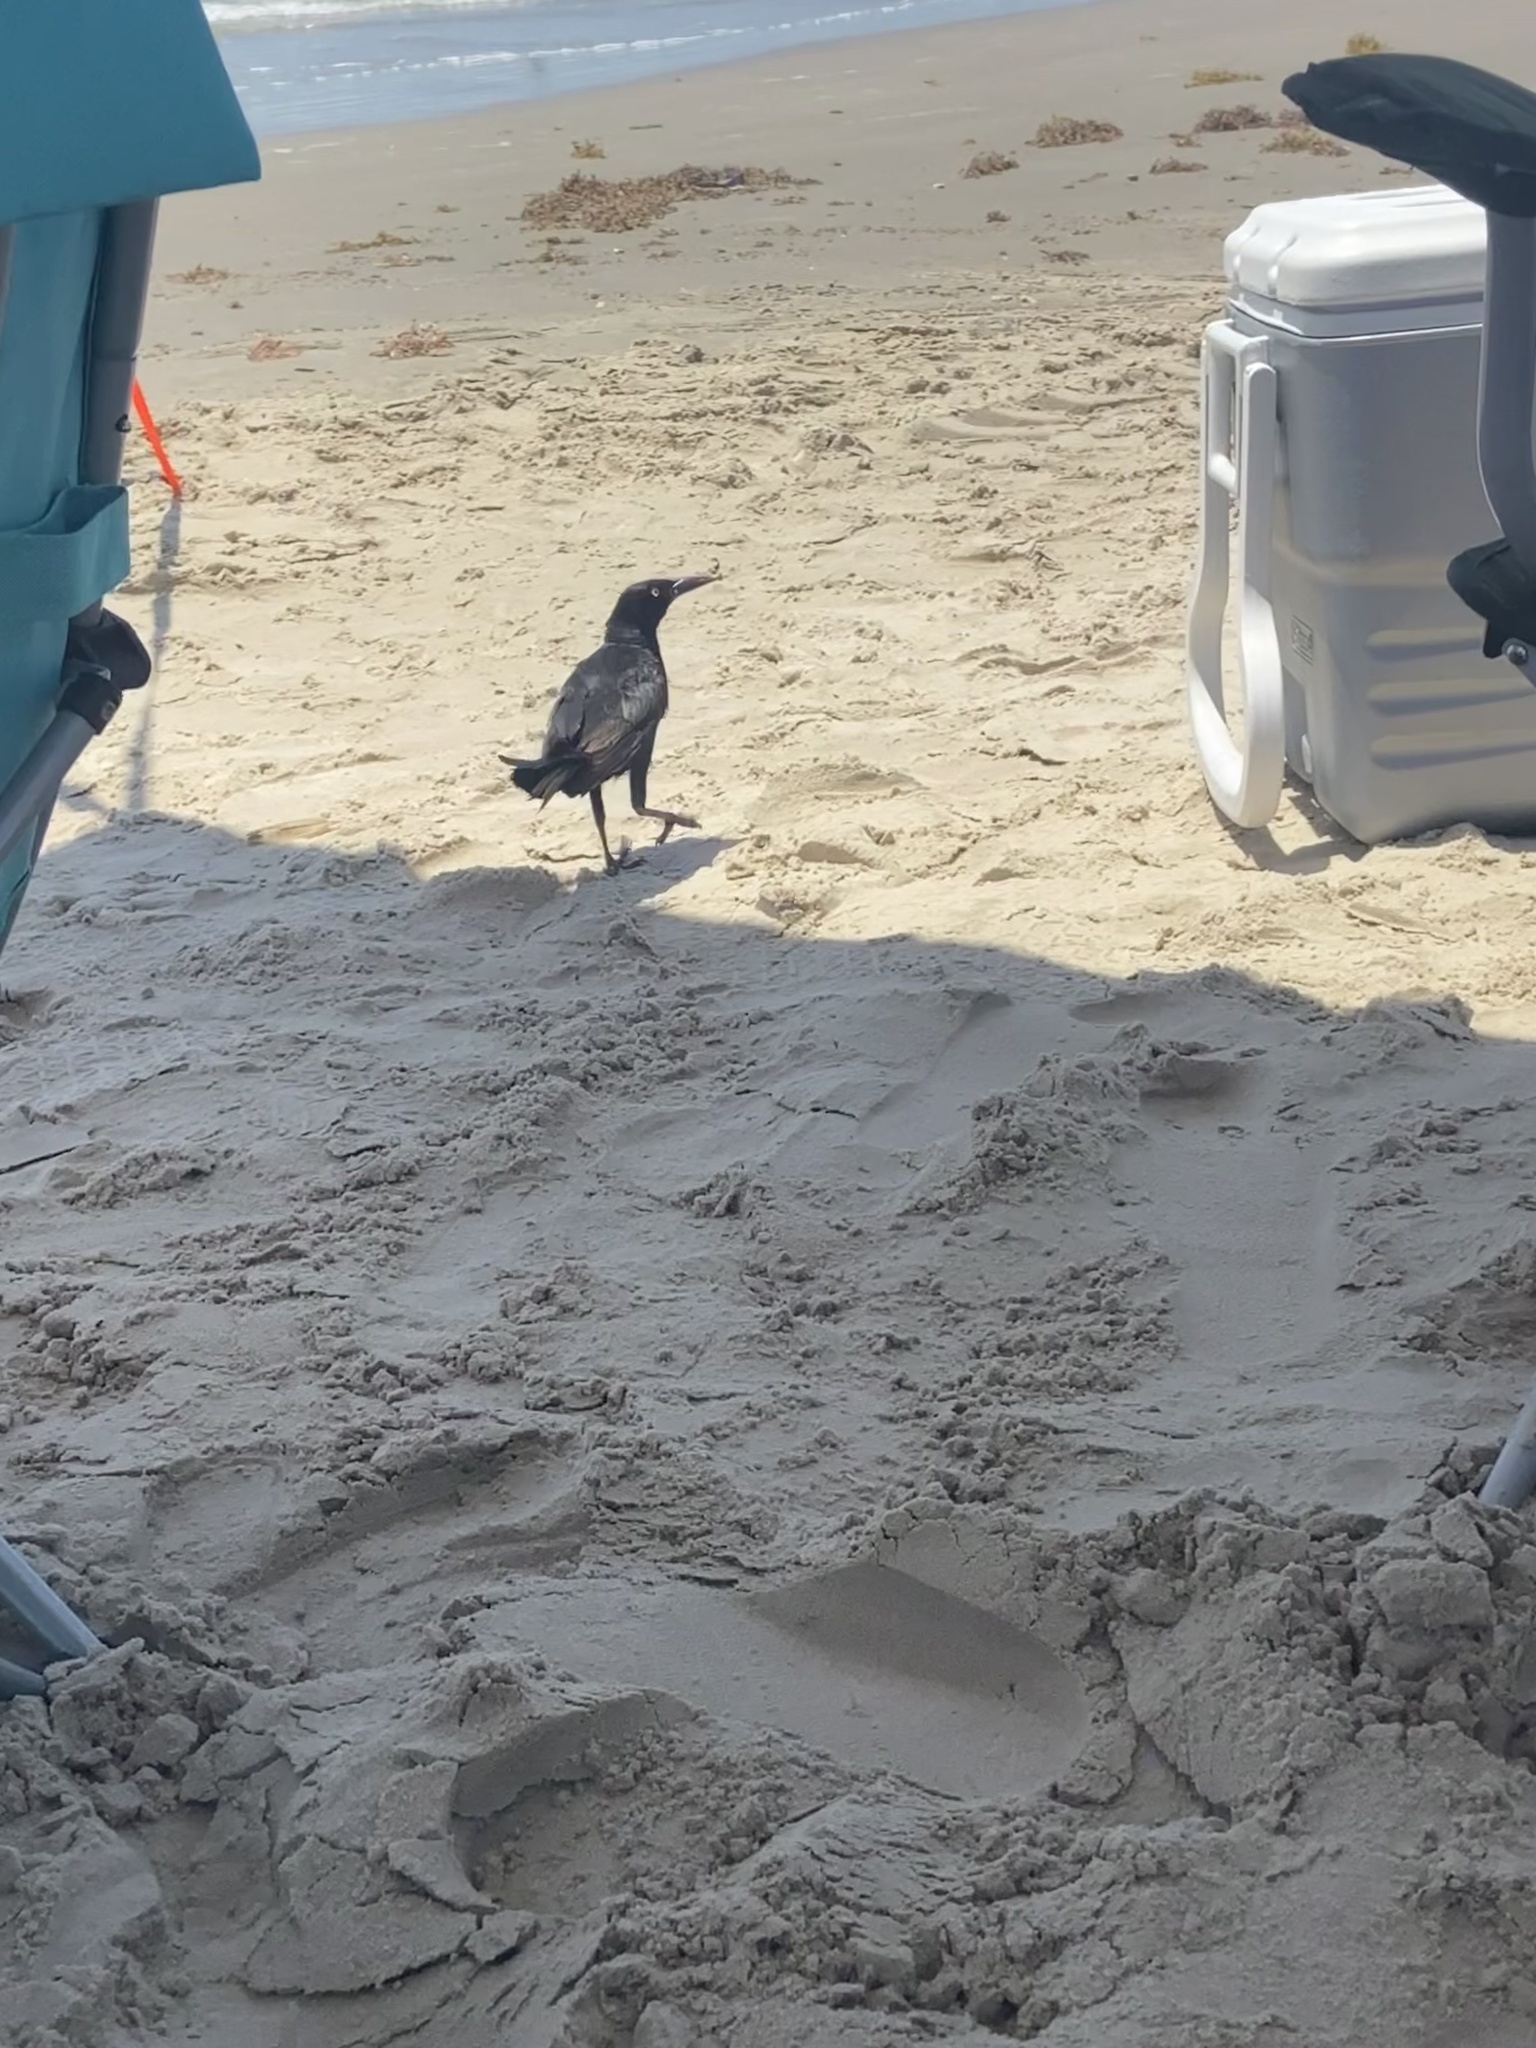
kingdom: Animalia
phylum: Chordata
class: Aves
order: Passeriformes
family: Icteridae
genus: Quiscalus
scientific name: Quiscalus mexicanus
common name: Great-tailed grackle
